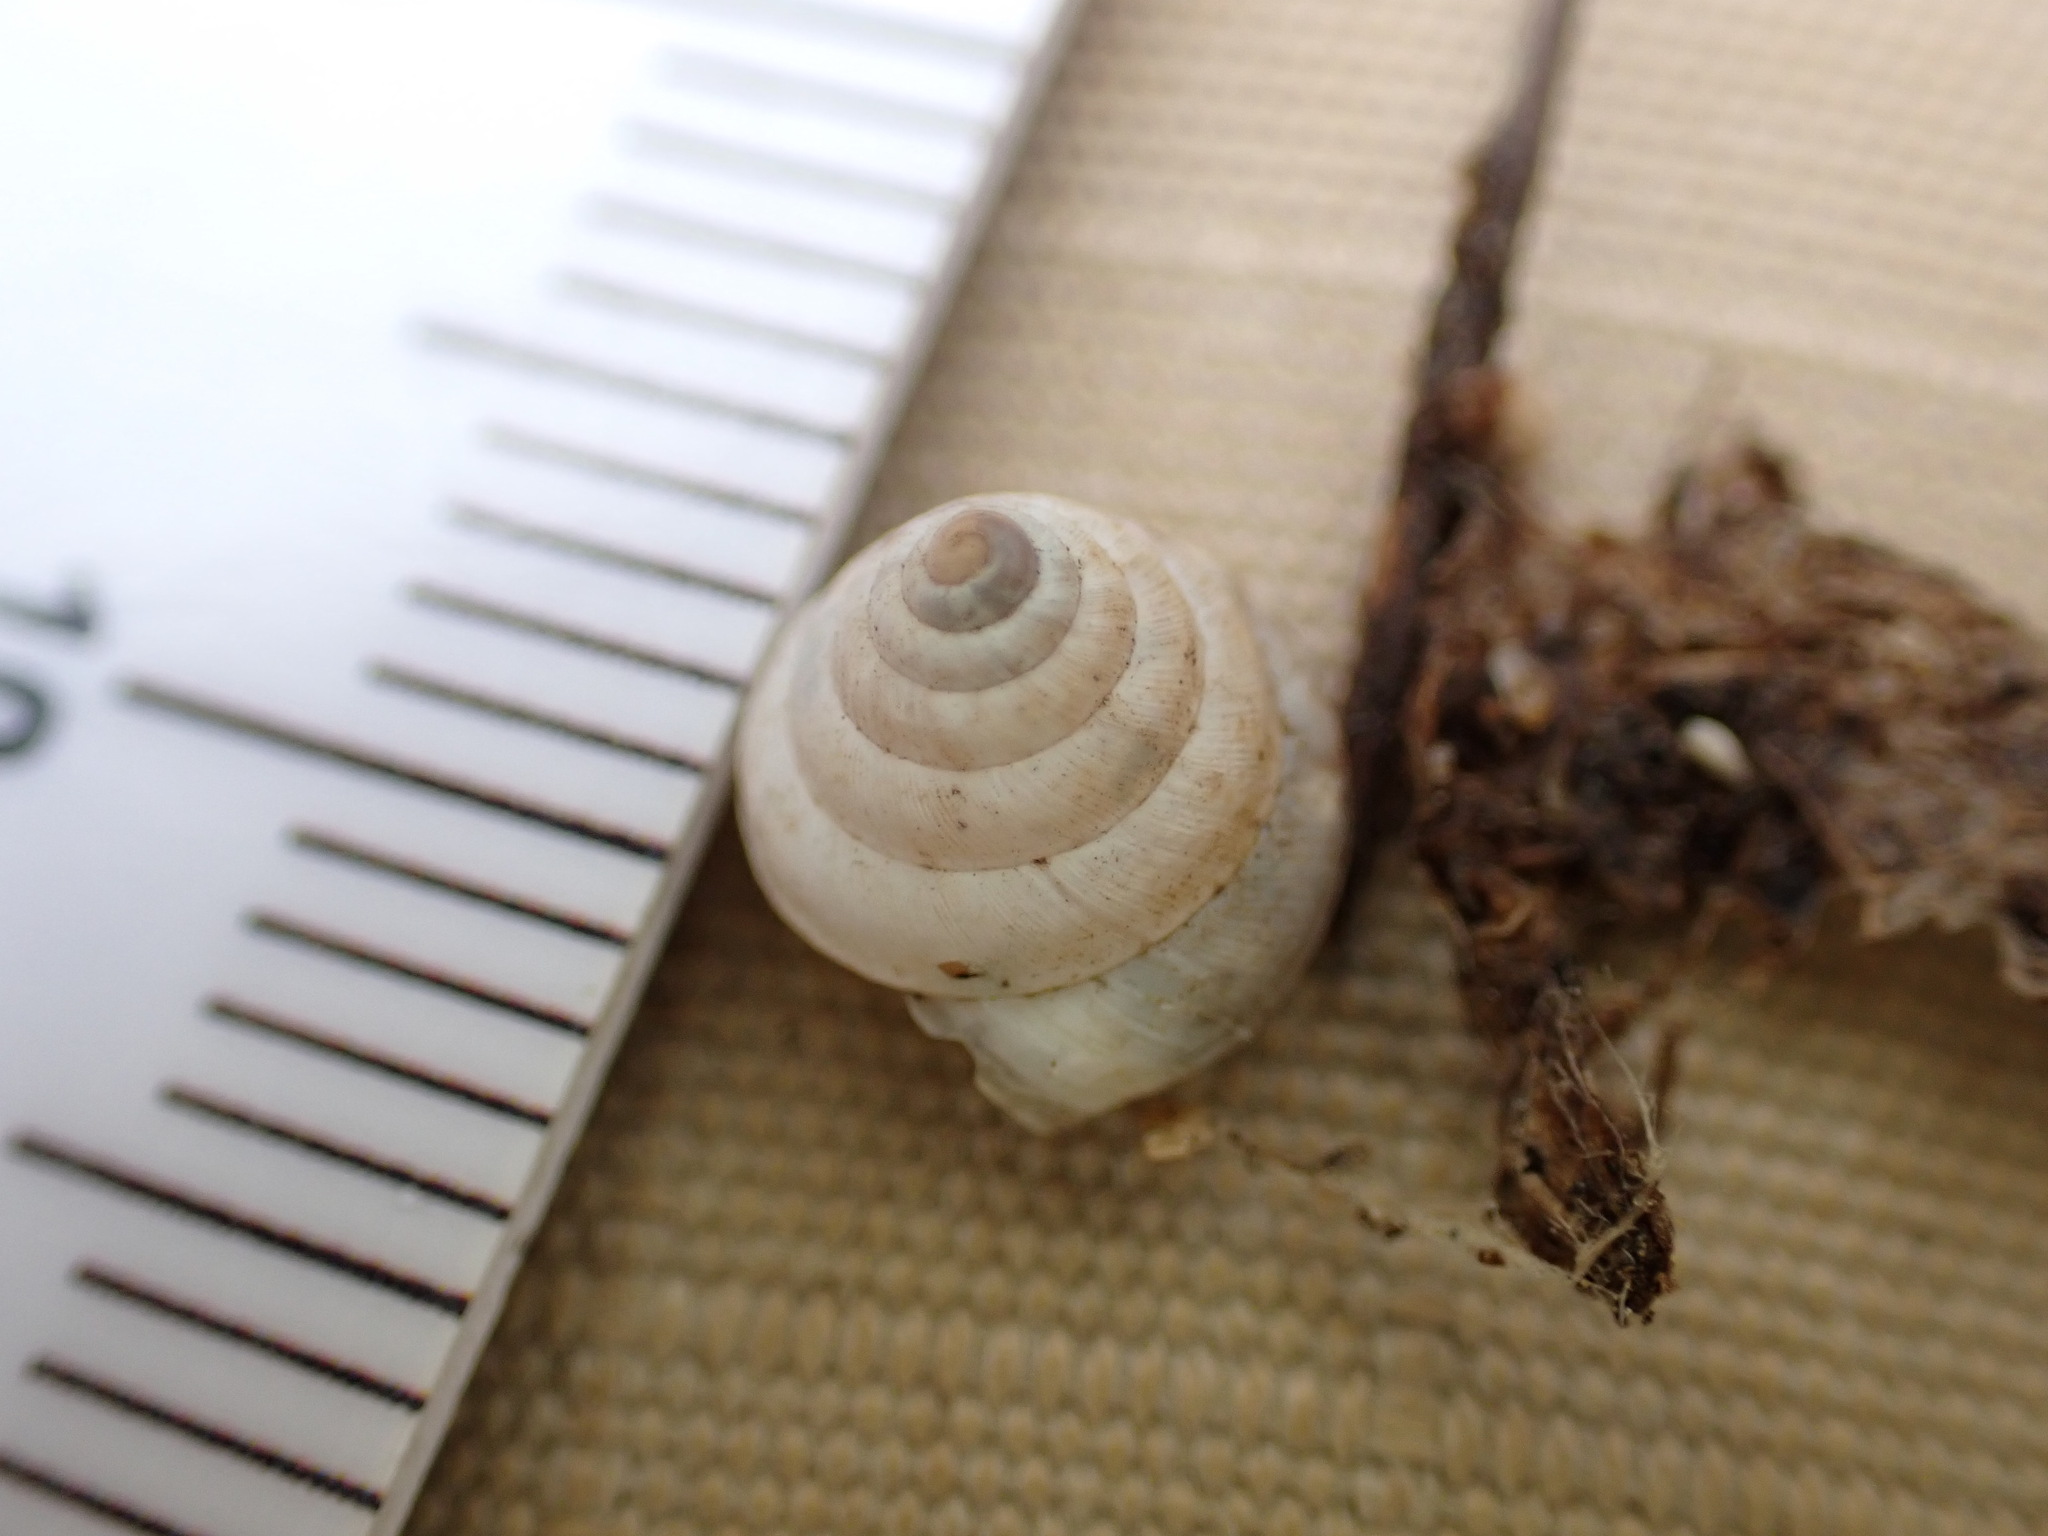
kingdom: Animalia
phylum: Mollusca
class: Gastropoda
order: Stylommatophora
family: Geomitridae
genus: Trochoidea
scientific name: Trochoidea trochoides
